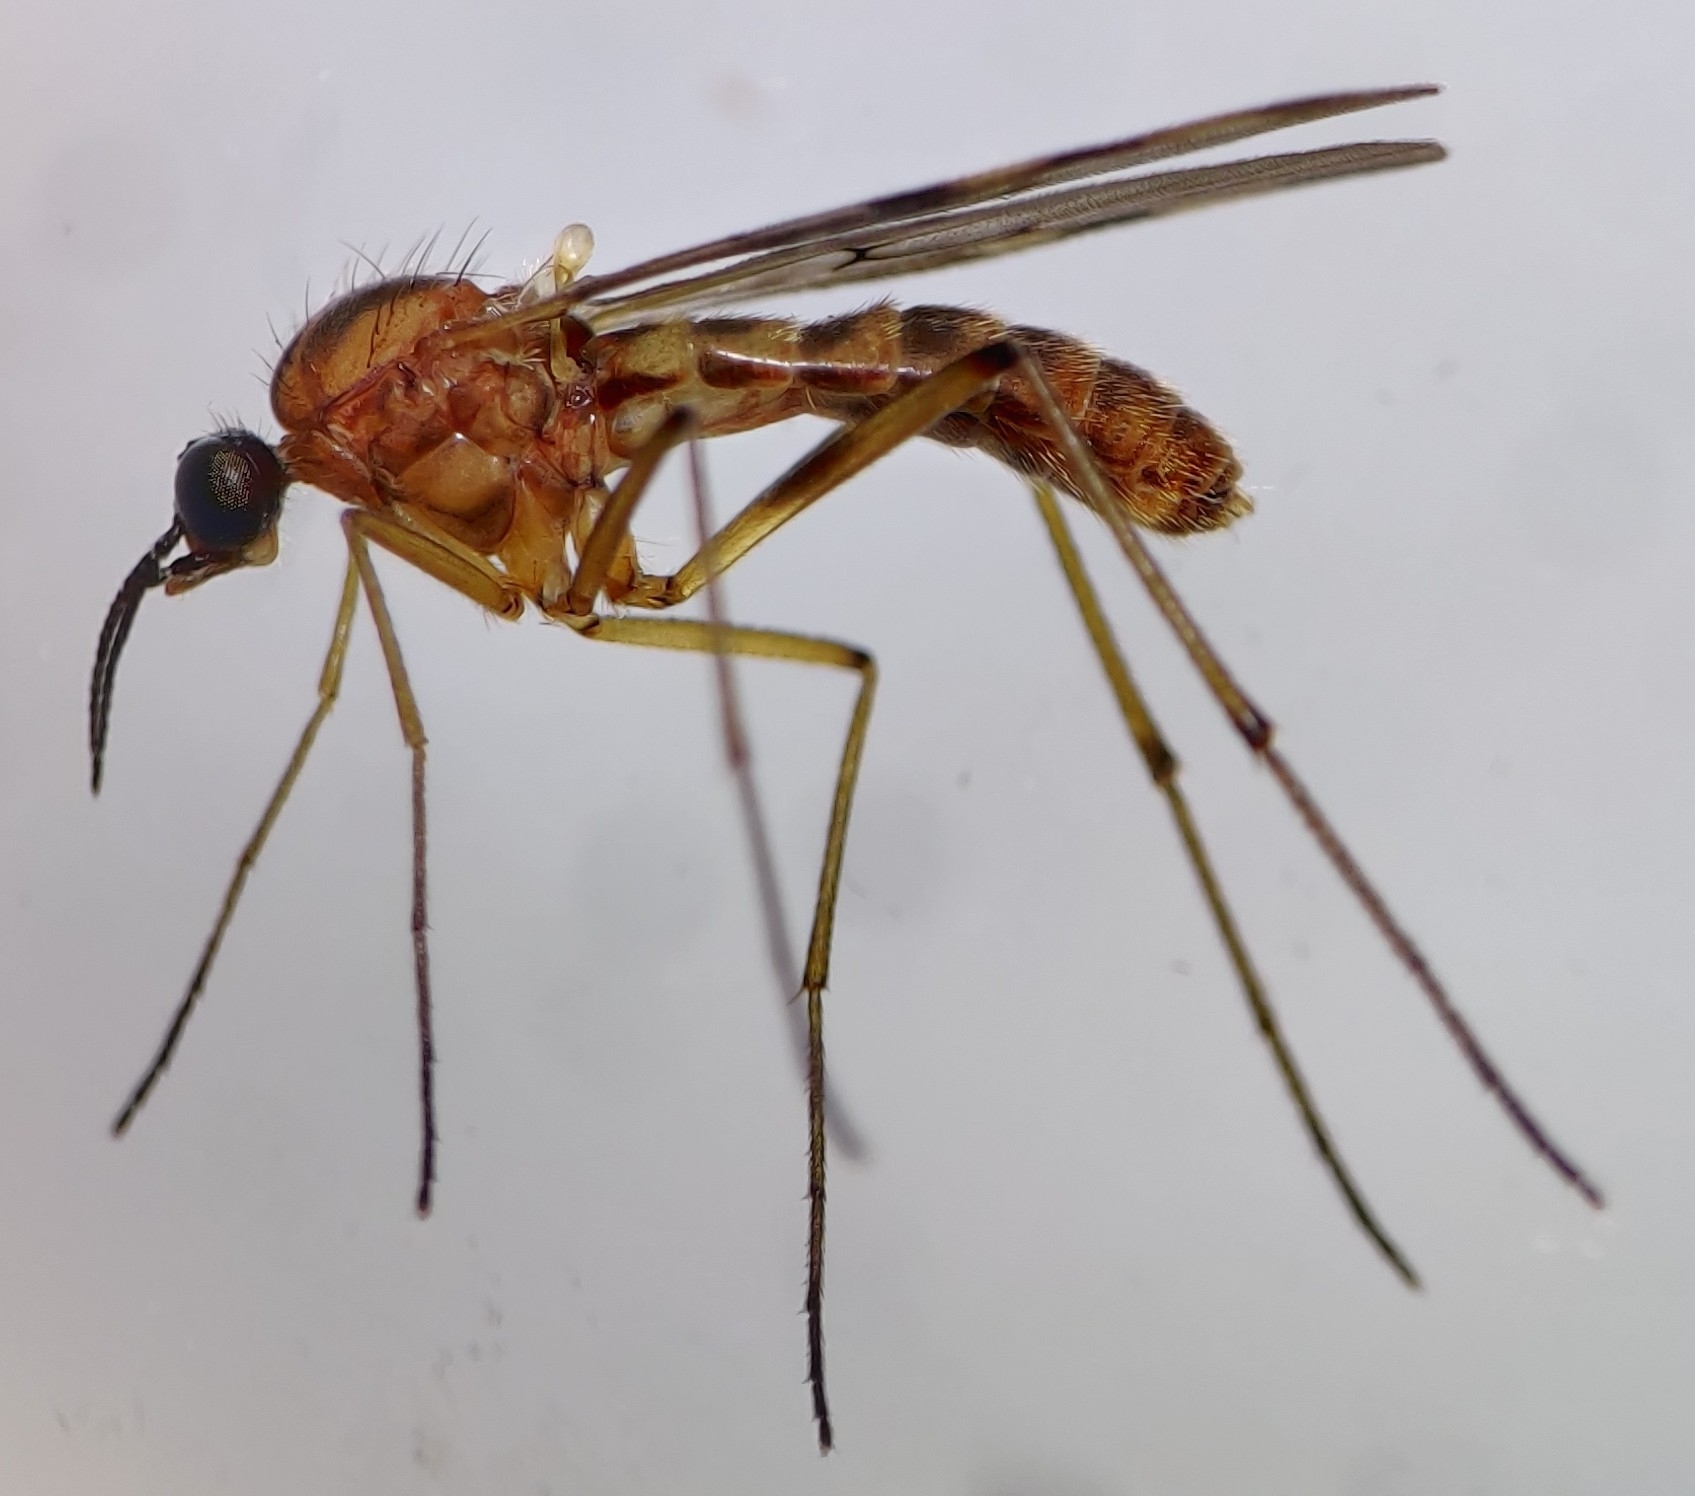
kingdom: Animalia
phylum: Arthropoda
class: Insecta
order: Diptera
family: Anisopodidae
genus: Sylvicola
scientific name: Sylvicola
